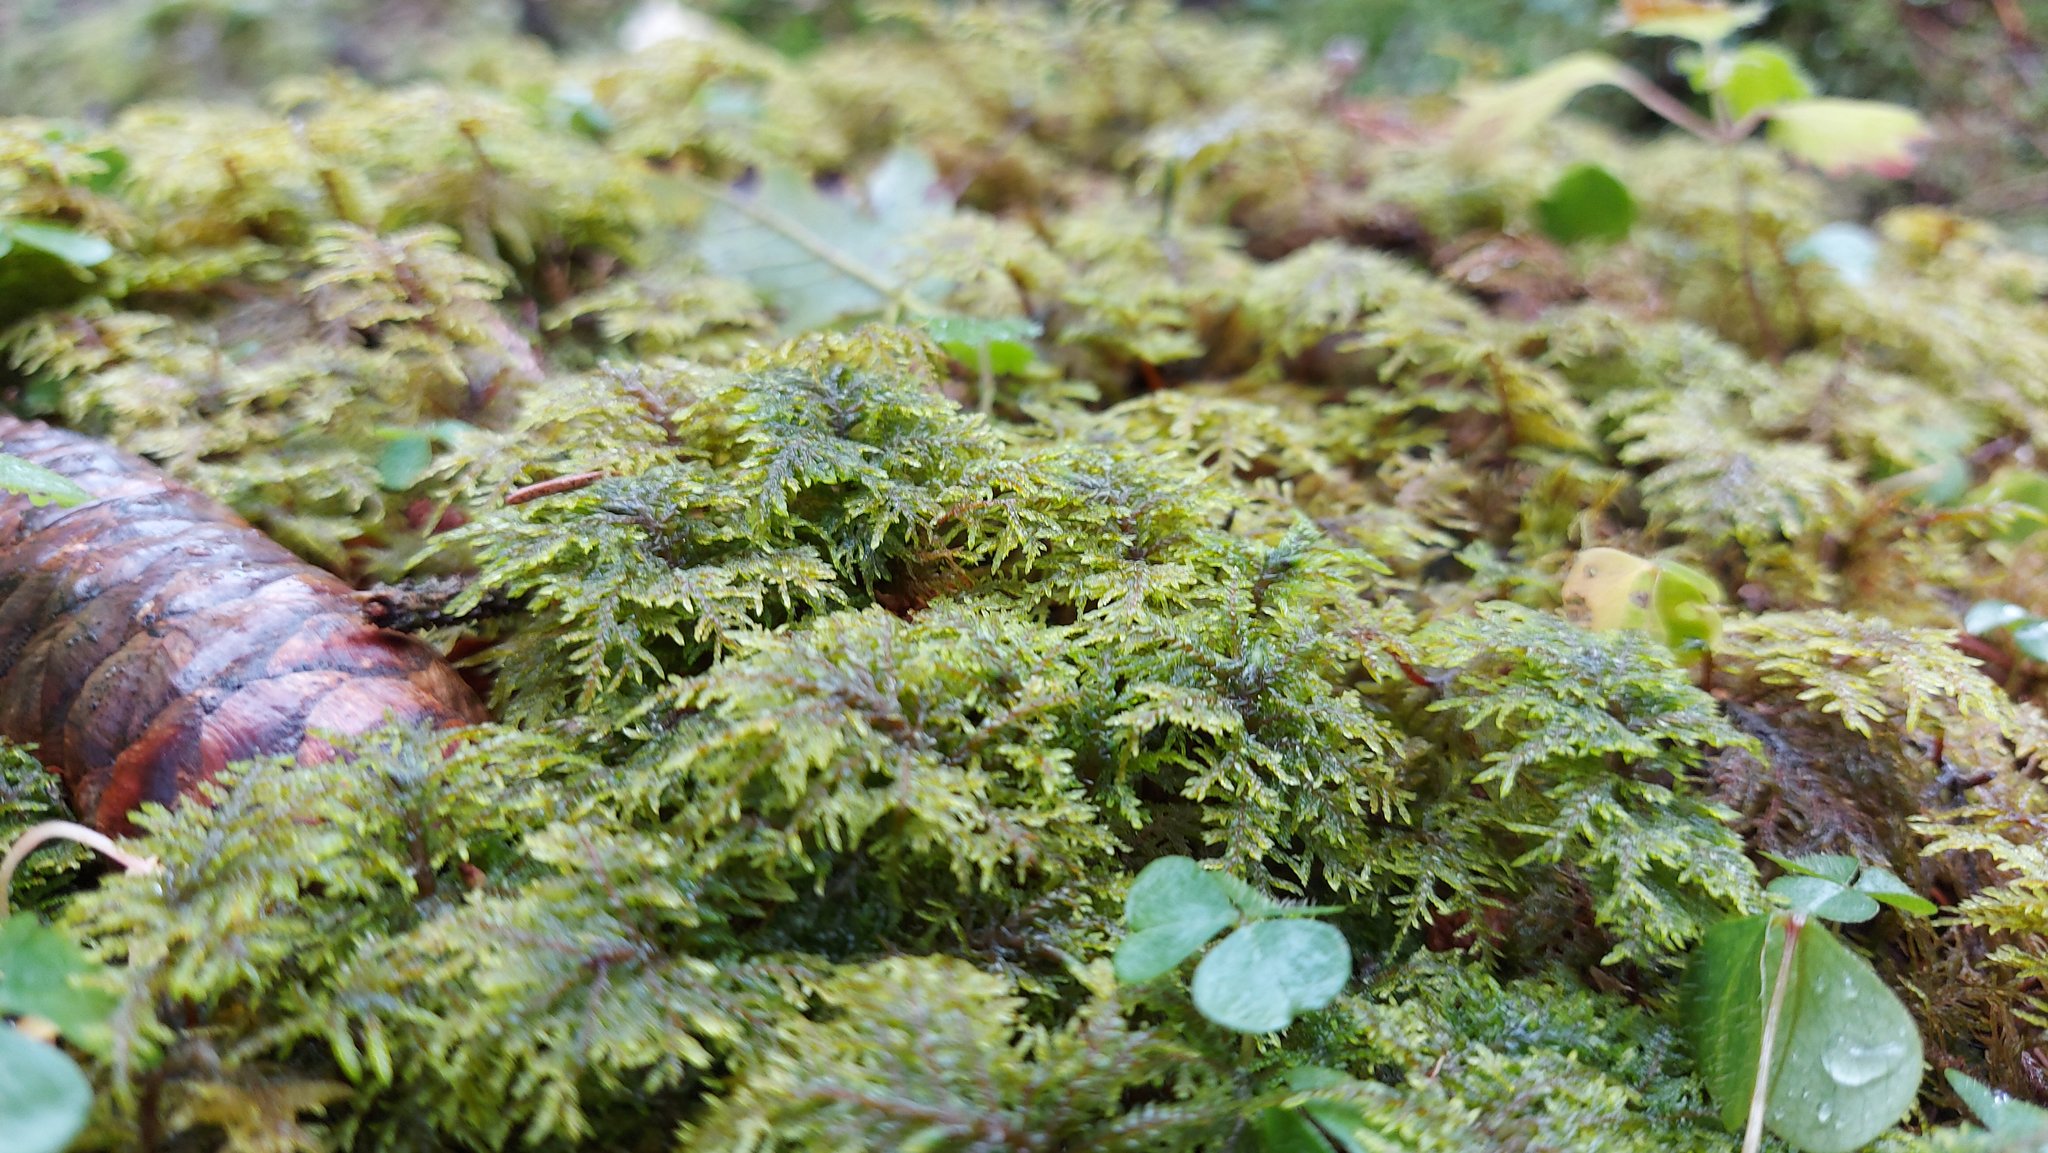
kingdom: Plantae
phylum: Bryophyta
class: Bryopsida
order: Hypnales
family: Hylocomiaceae
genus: Hylocomium
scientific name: Hylocomium splendens
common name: Stairstep moss
